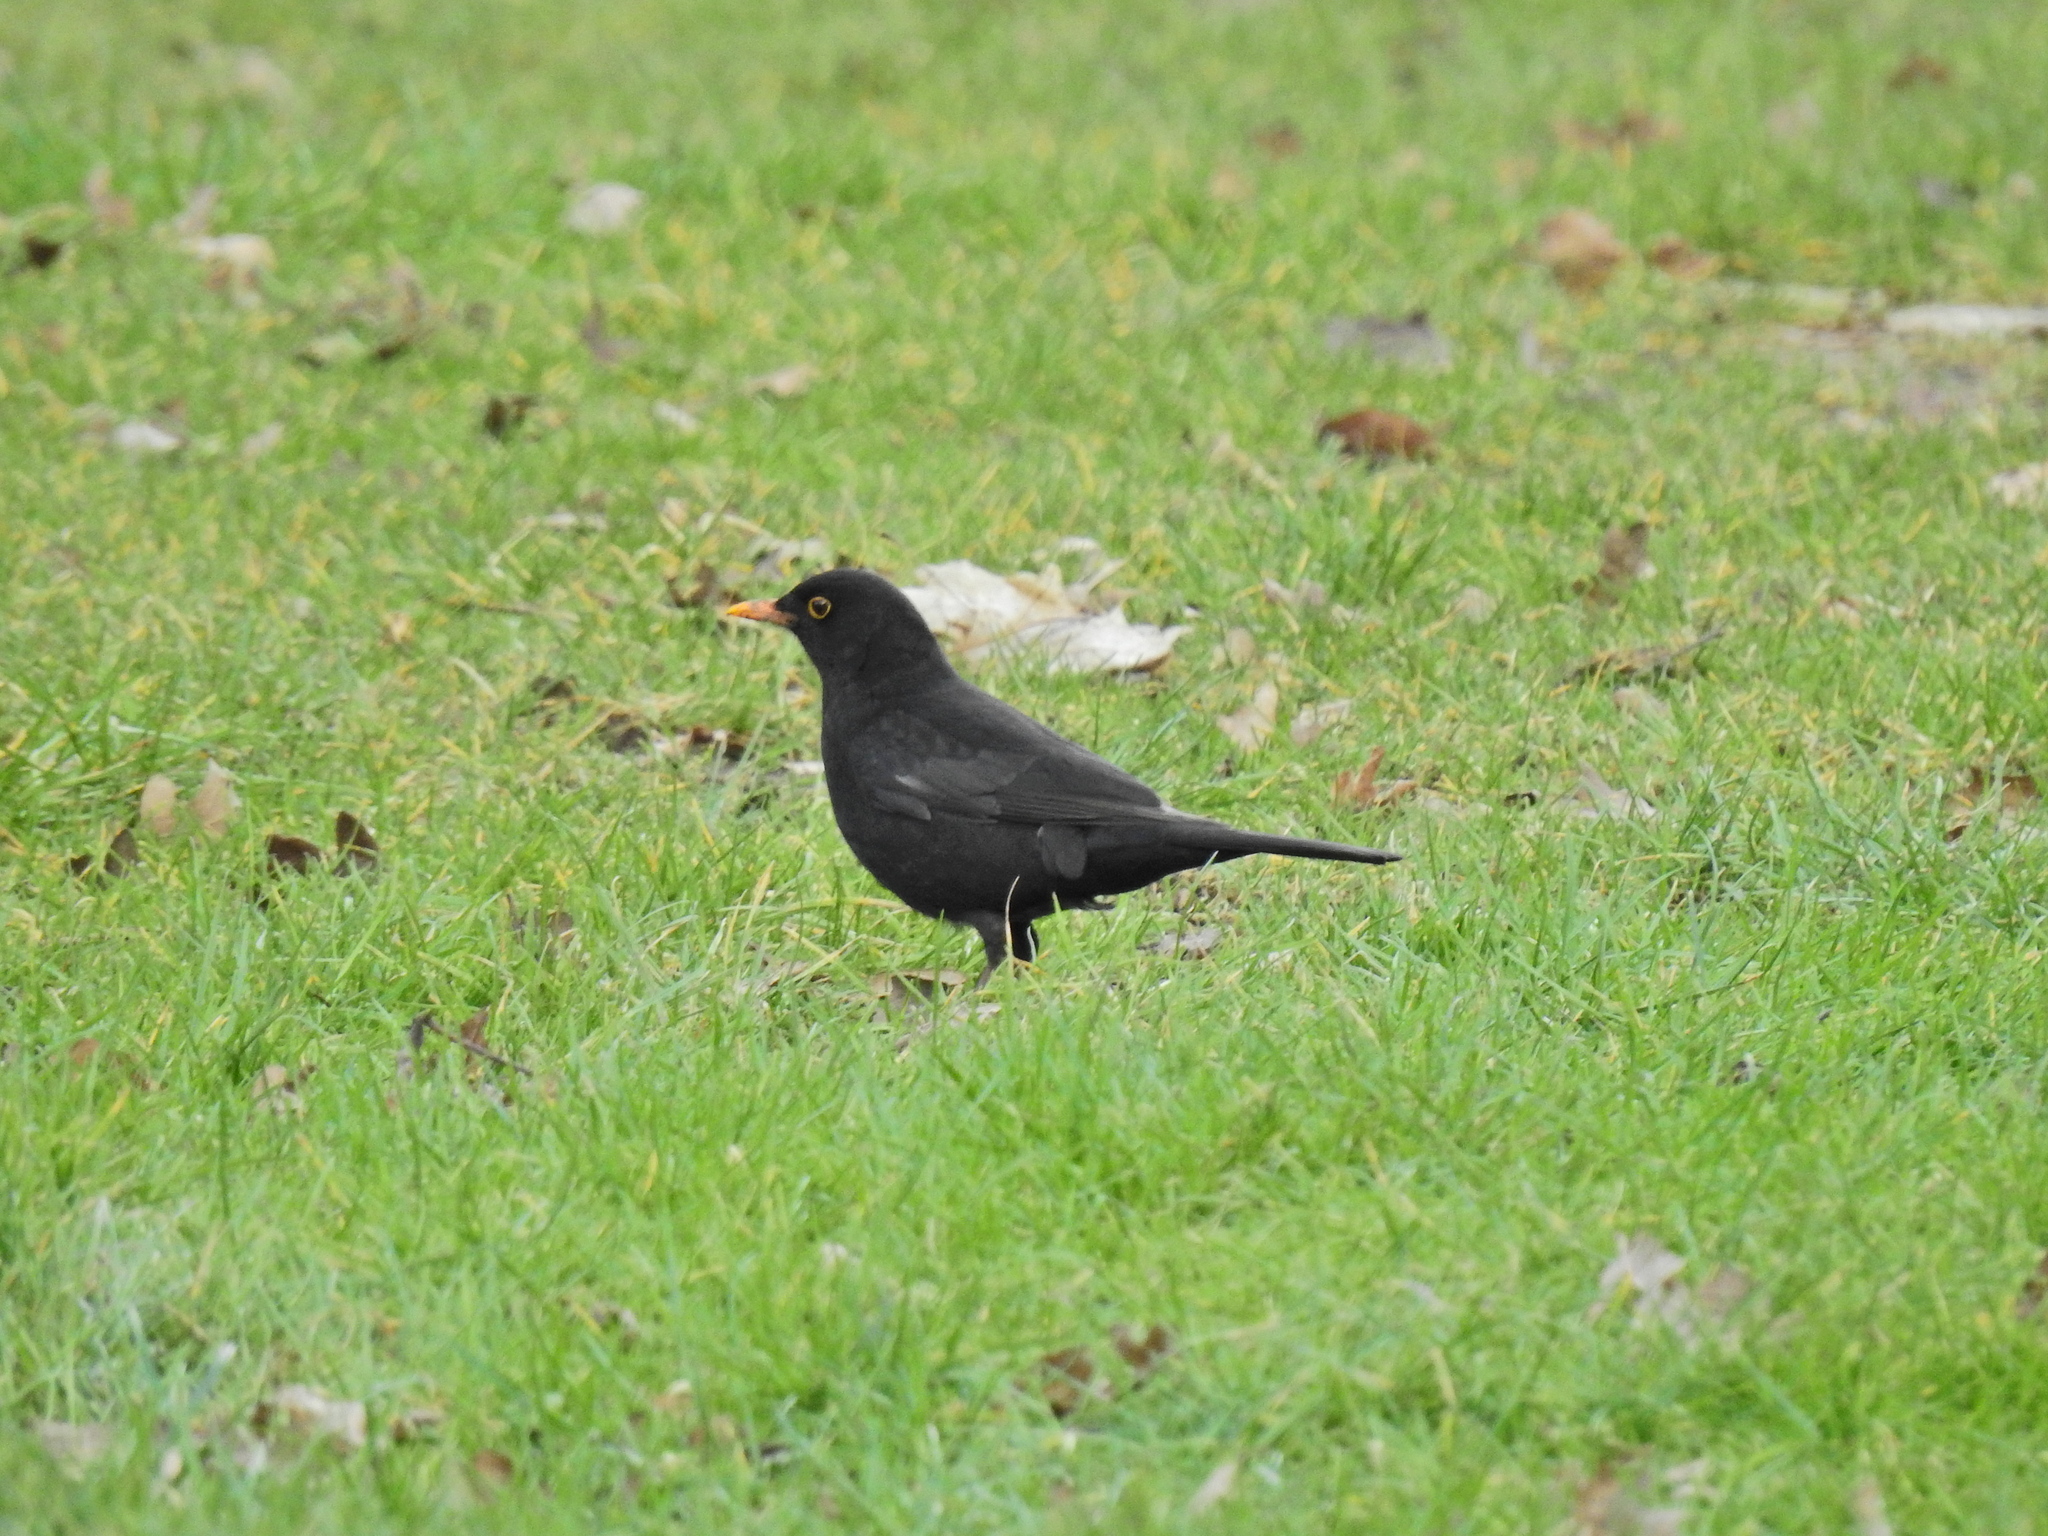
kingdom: Animalia
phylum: Chordata
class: Aves
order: Passeriformes
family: Turdidae
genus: Turdus
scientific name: Turdus merula
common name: Common blackbird
